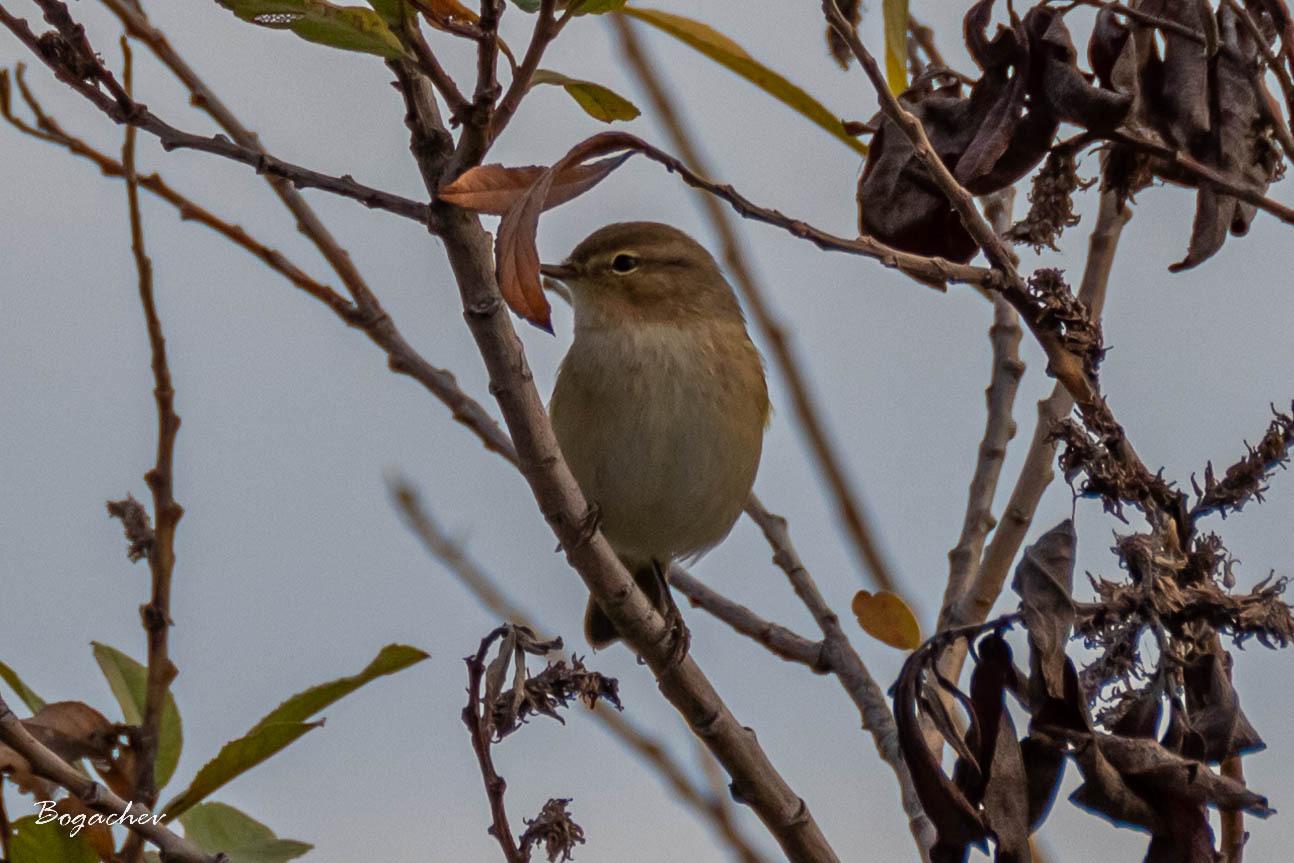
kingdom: Animalia
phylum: Chordata
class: Aves
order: Passeriformes
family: Phylloscopidae
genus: Phylloscopus
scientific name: Phylloscopus collybita
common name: Common chiffchaff
